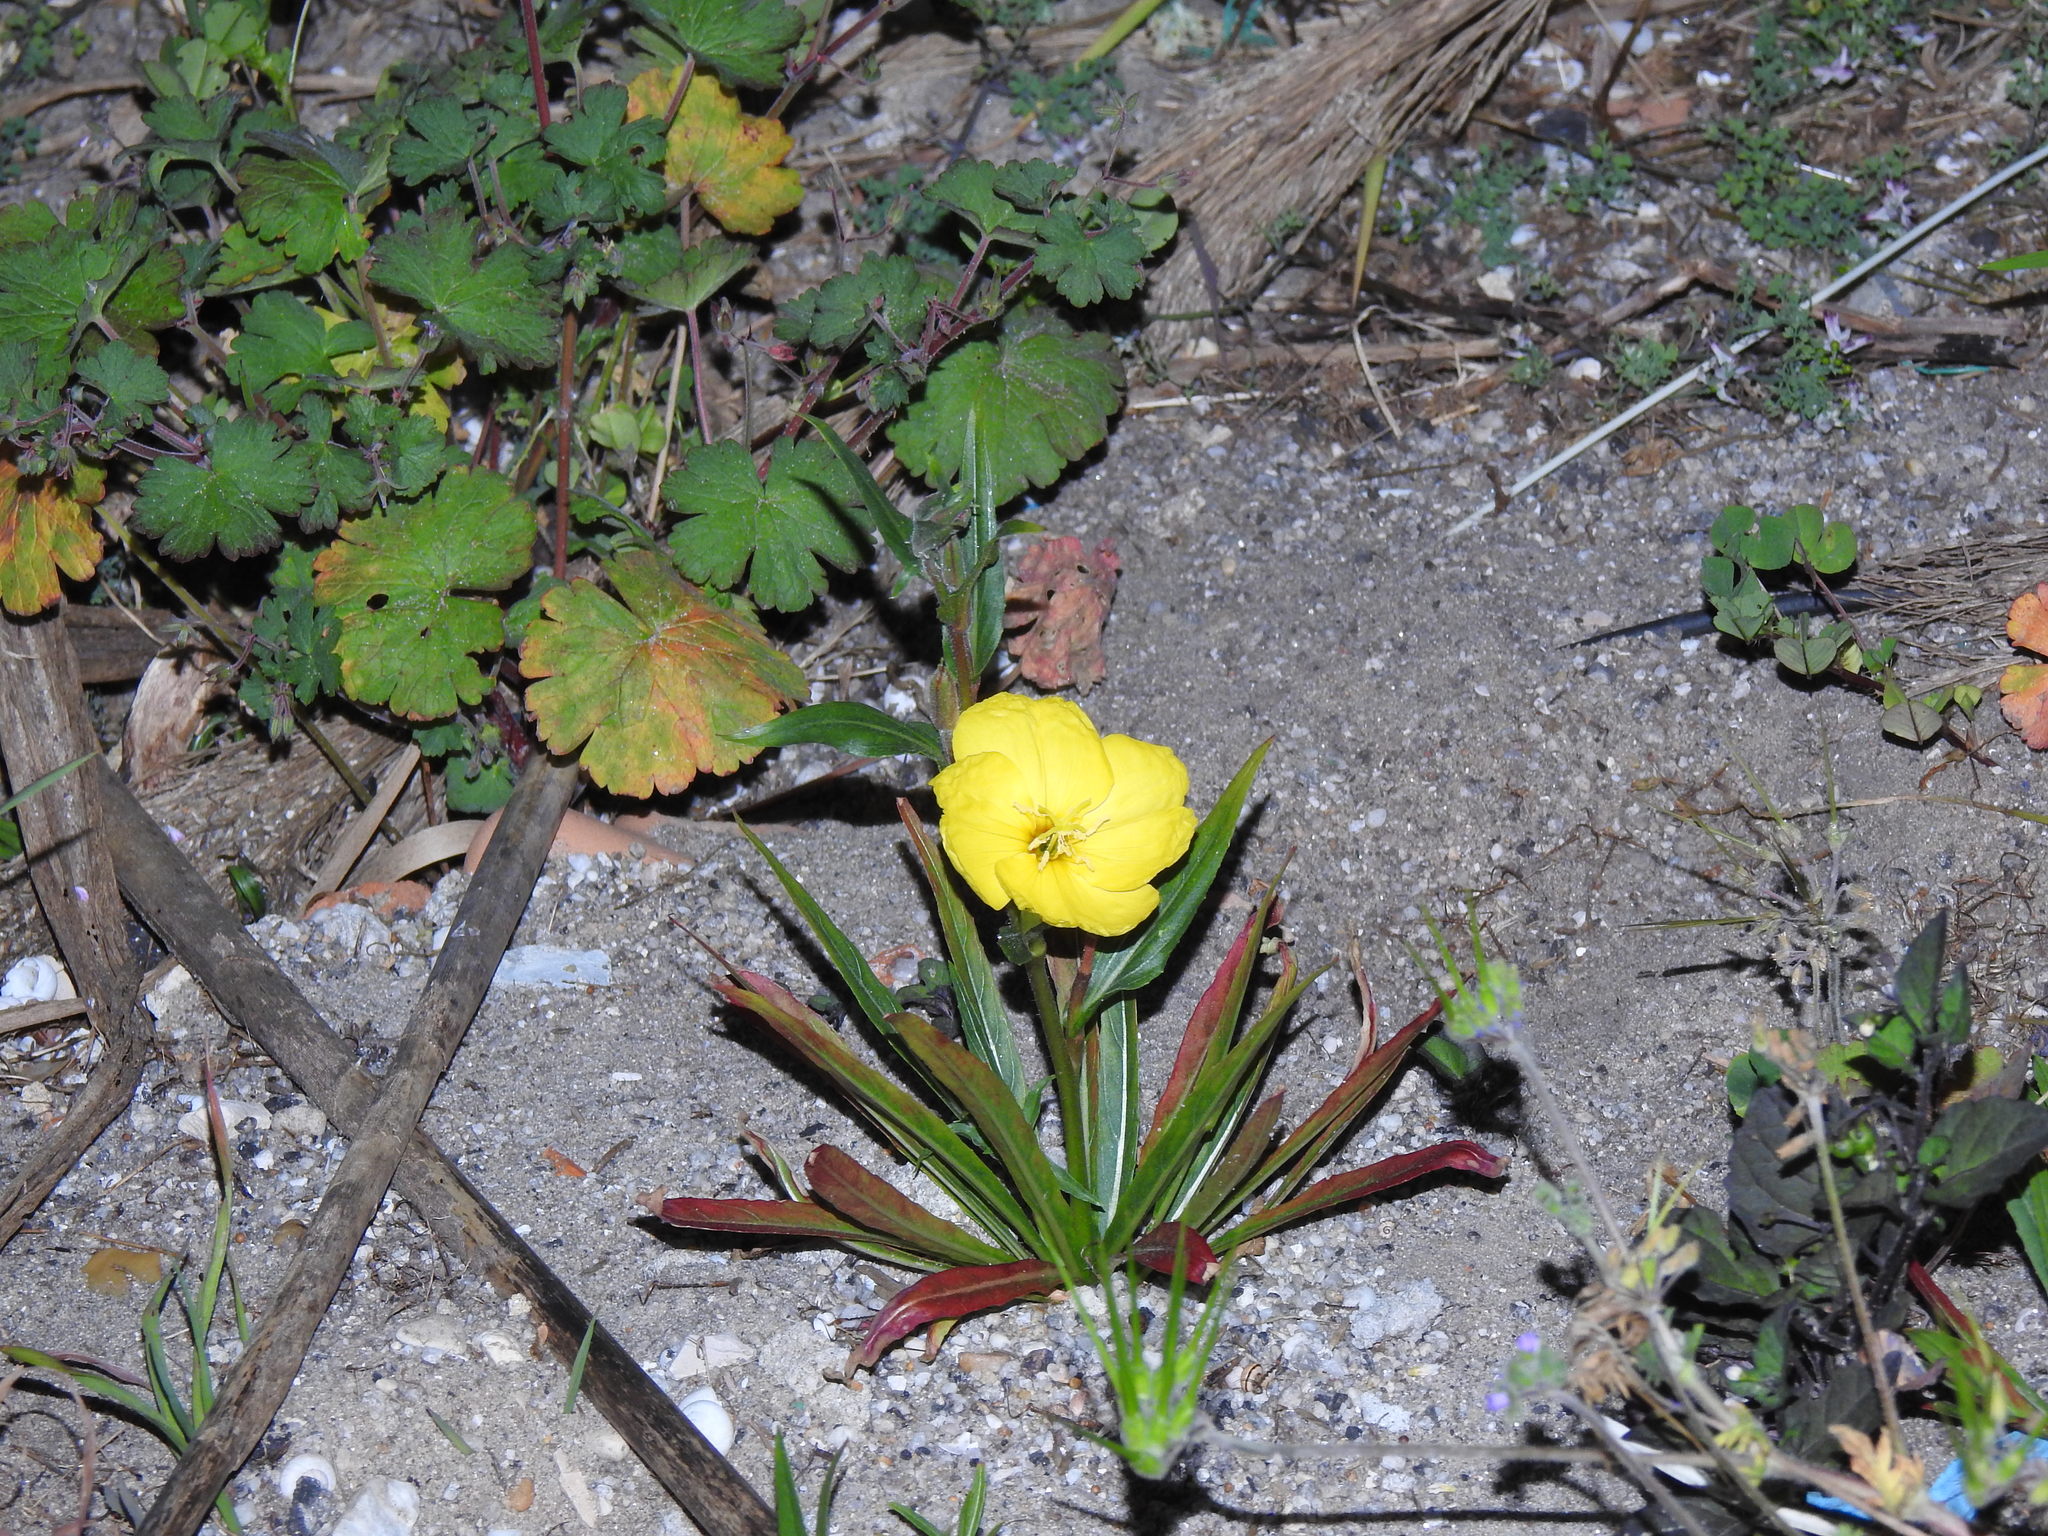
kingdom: Plantae
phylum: Tracheophyta
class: Magnoliopsida
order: Myrtales
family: Onagraceae
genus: Oenothera
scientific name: Oenothera stricta
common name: Fragrant evening-primrose
